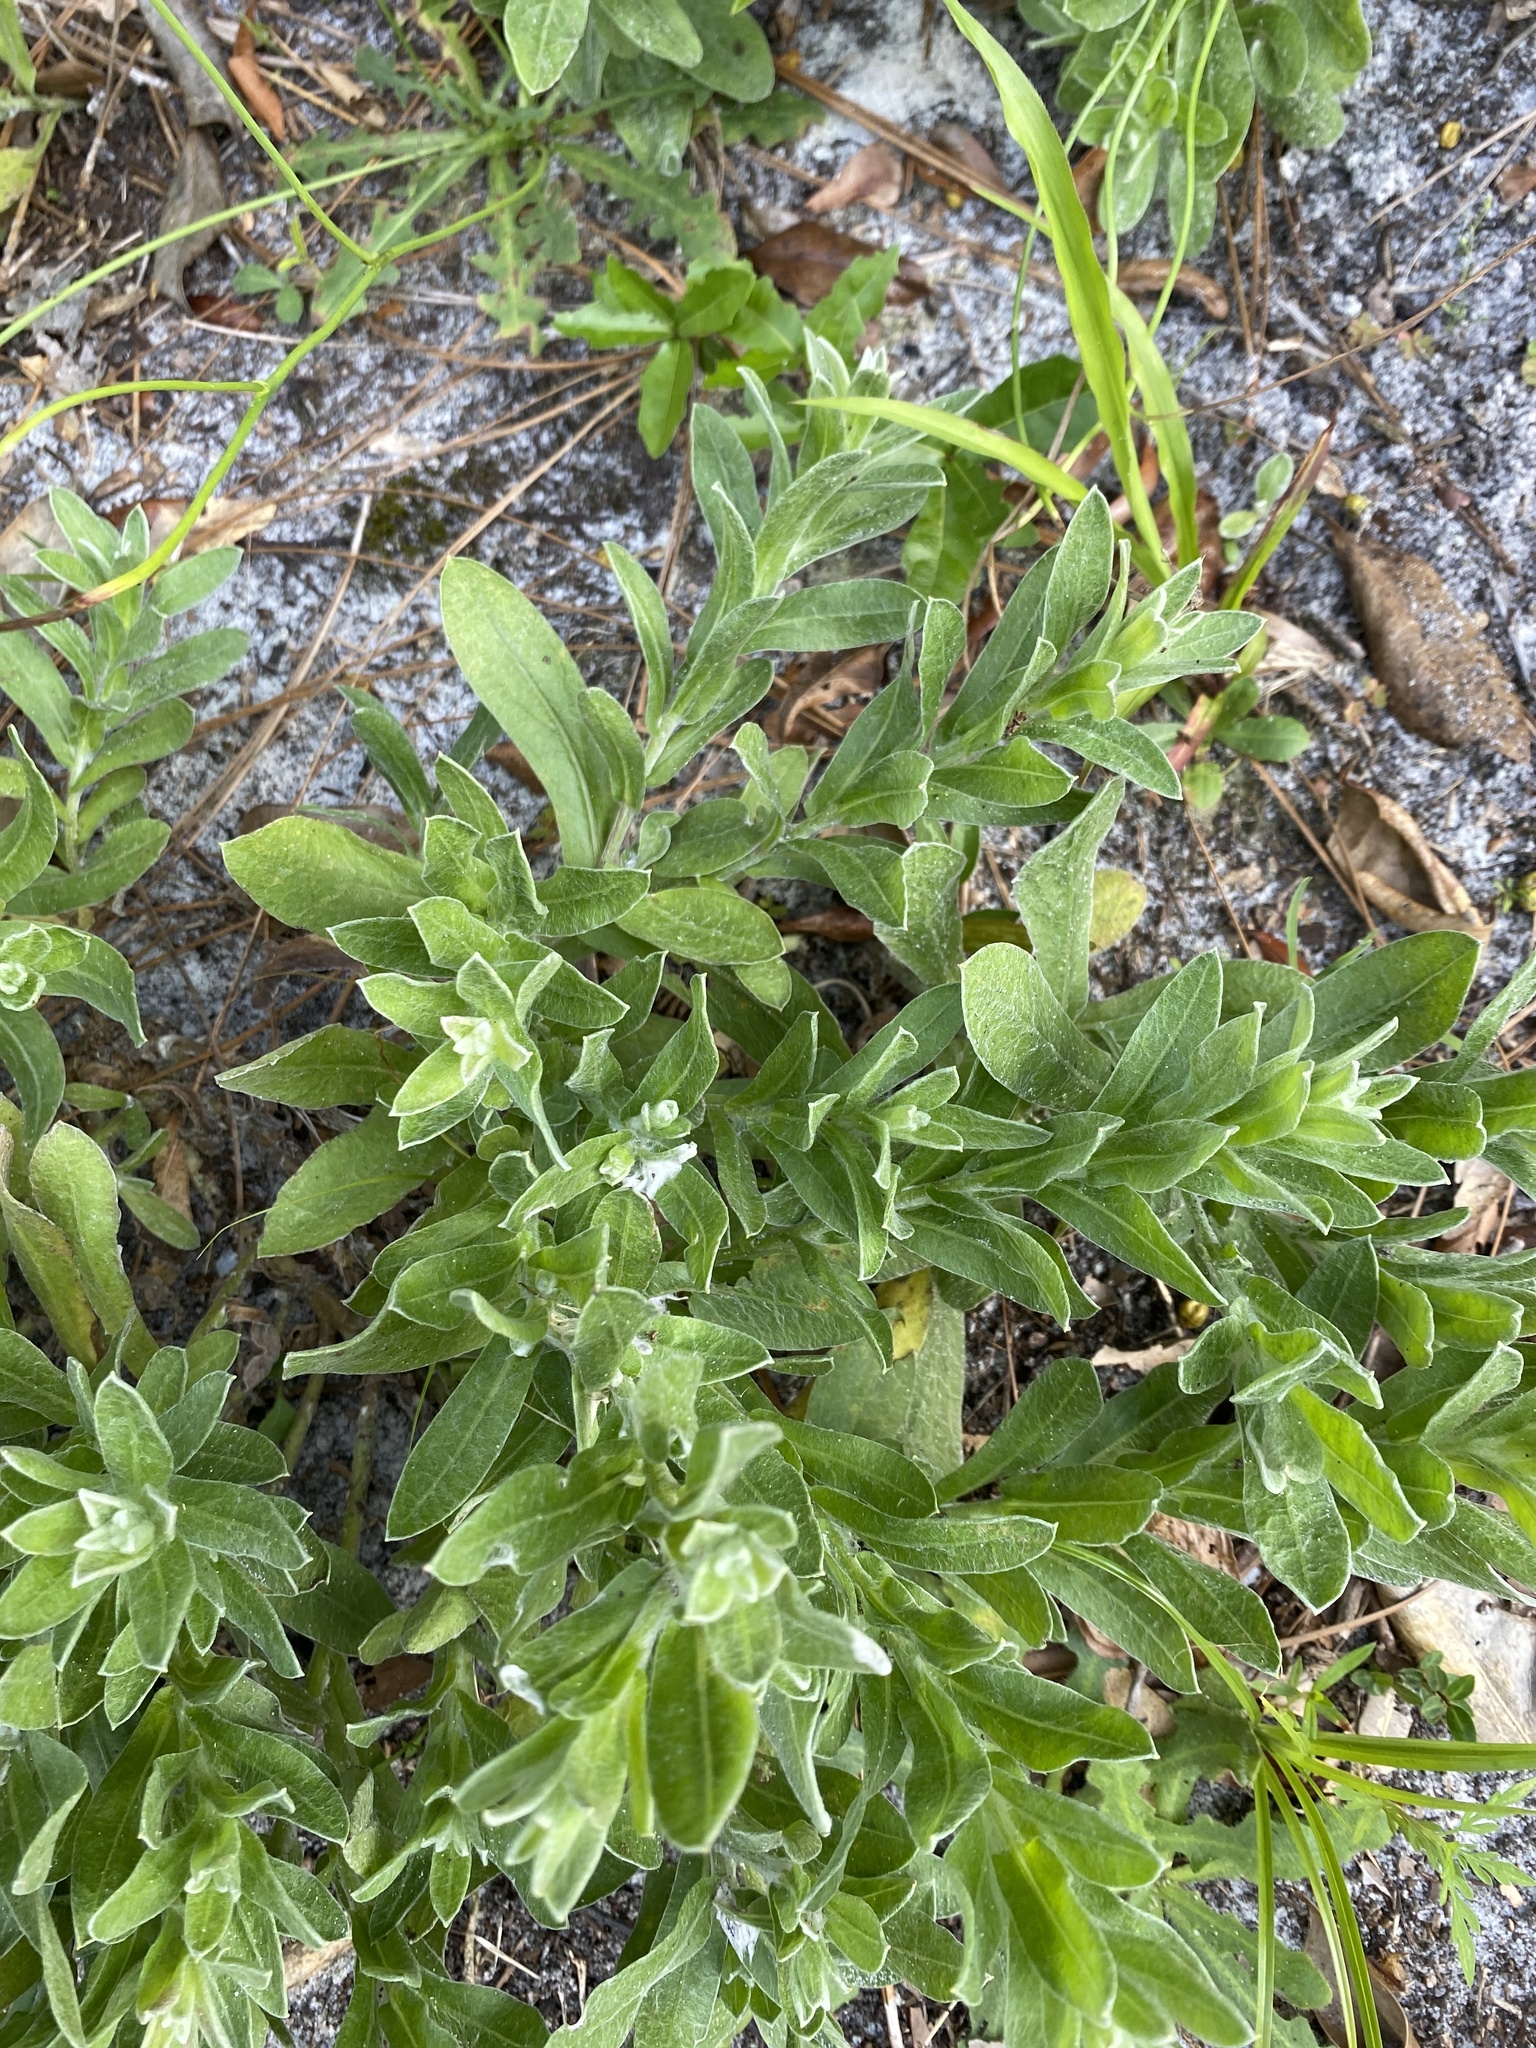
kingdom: Plantae
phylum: Tracheophyta
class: Magnoliopsida
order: Asterales
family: Asteraceae
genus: Chrysopsis
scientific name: Chrysopsis gossypina
